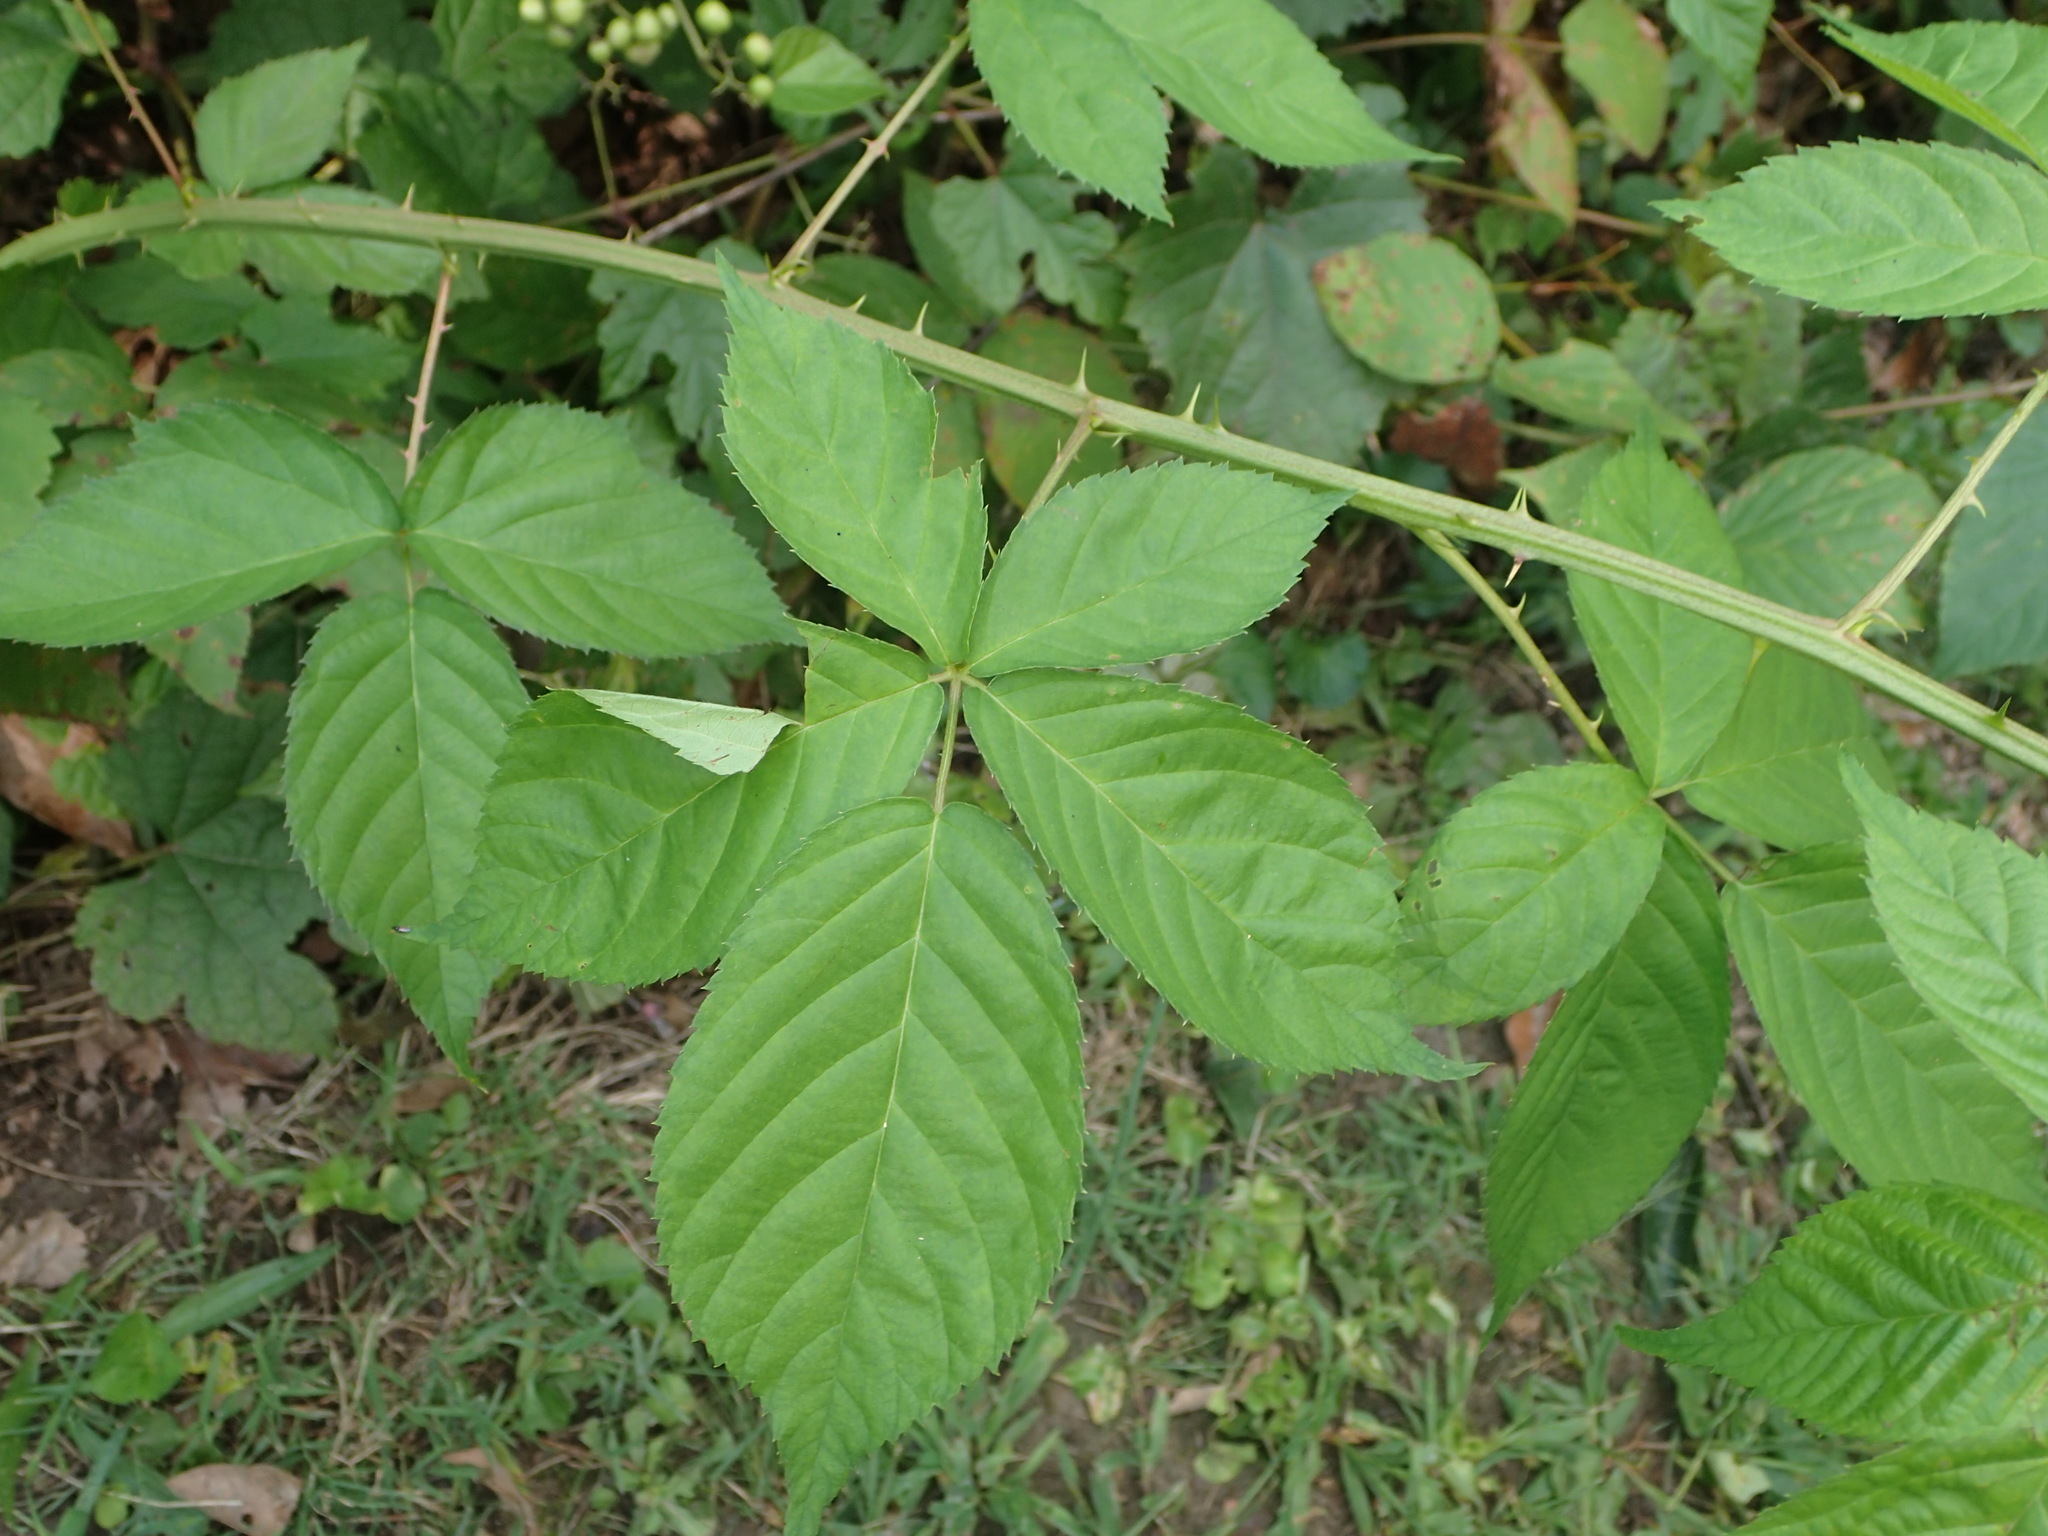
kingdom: Plantae
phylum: Tracheophyta
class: Magnoliopsida
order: Rosales
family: Rosaceae
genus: Rubus
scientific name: Rubus allegheniensis
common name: Allegheny blackberry
